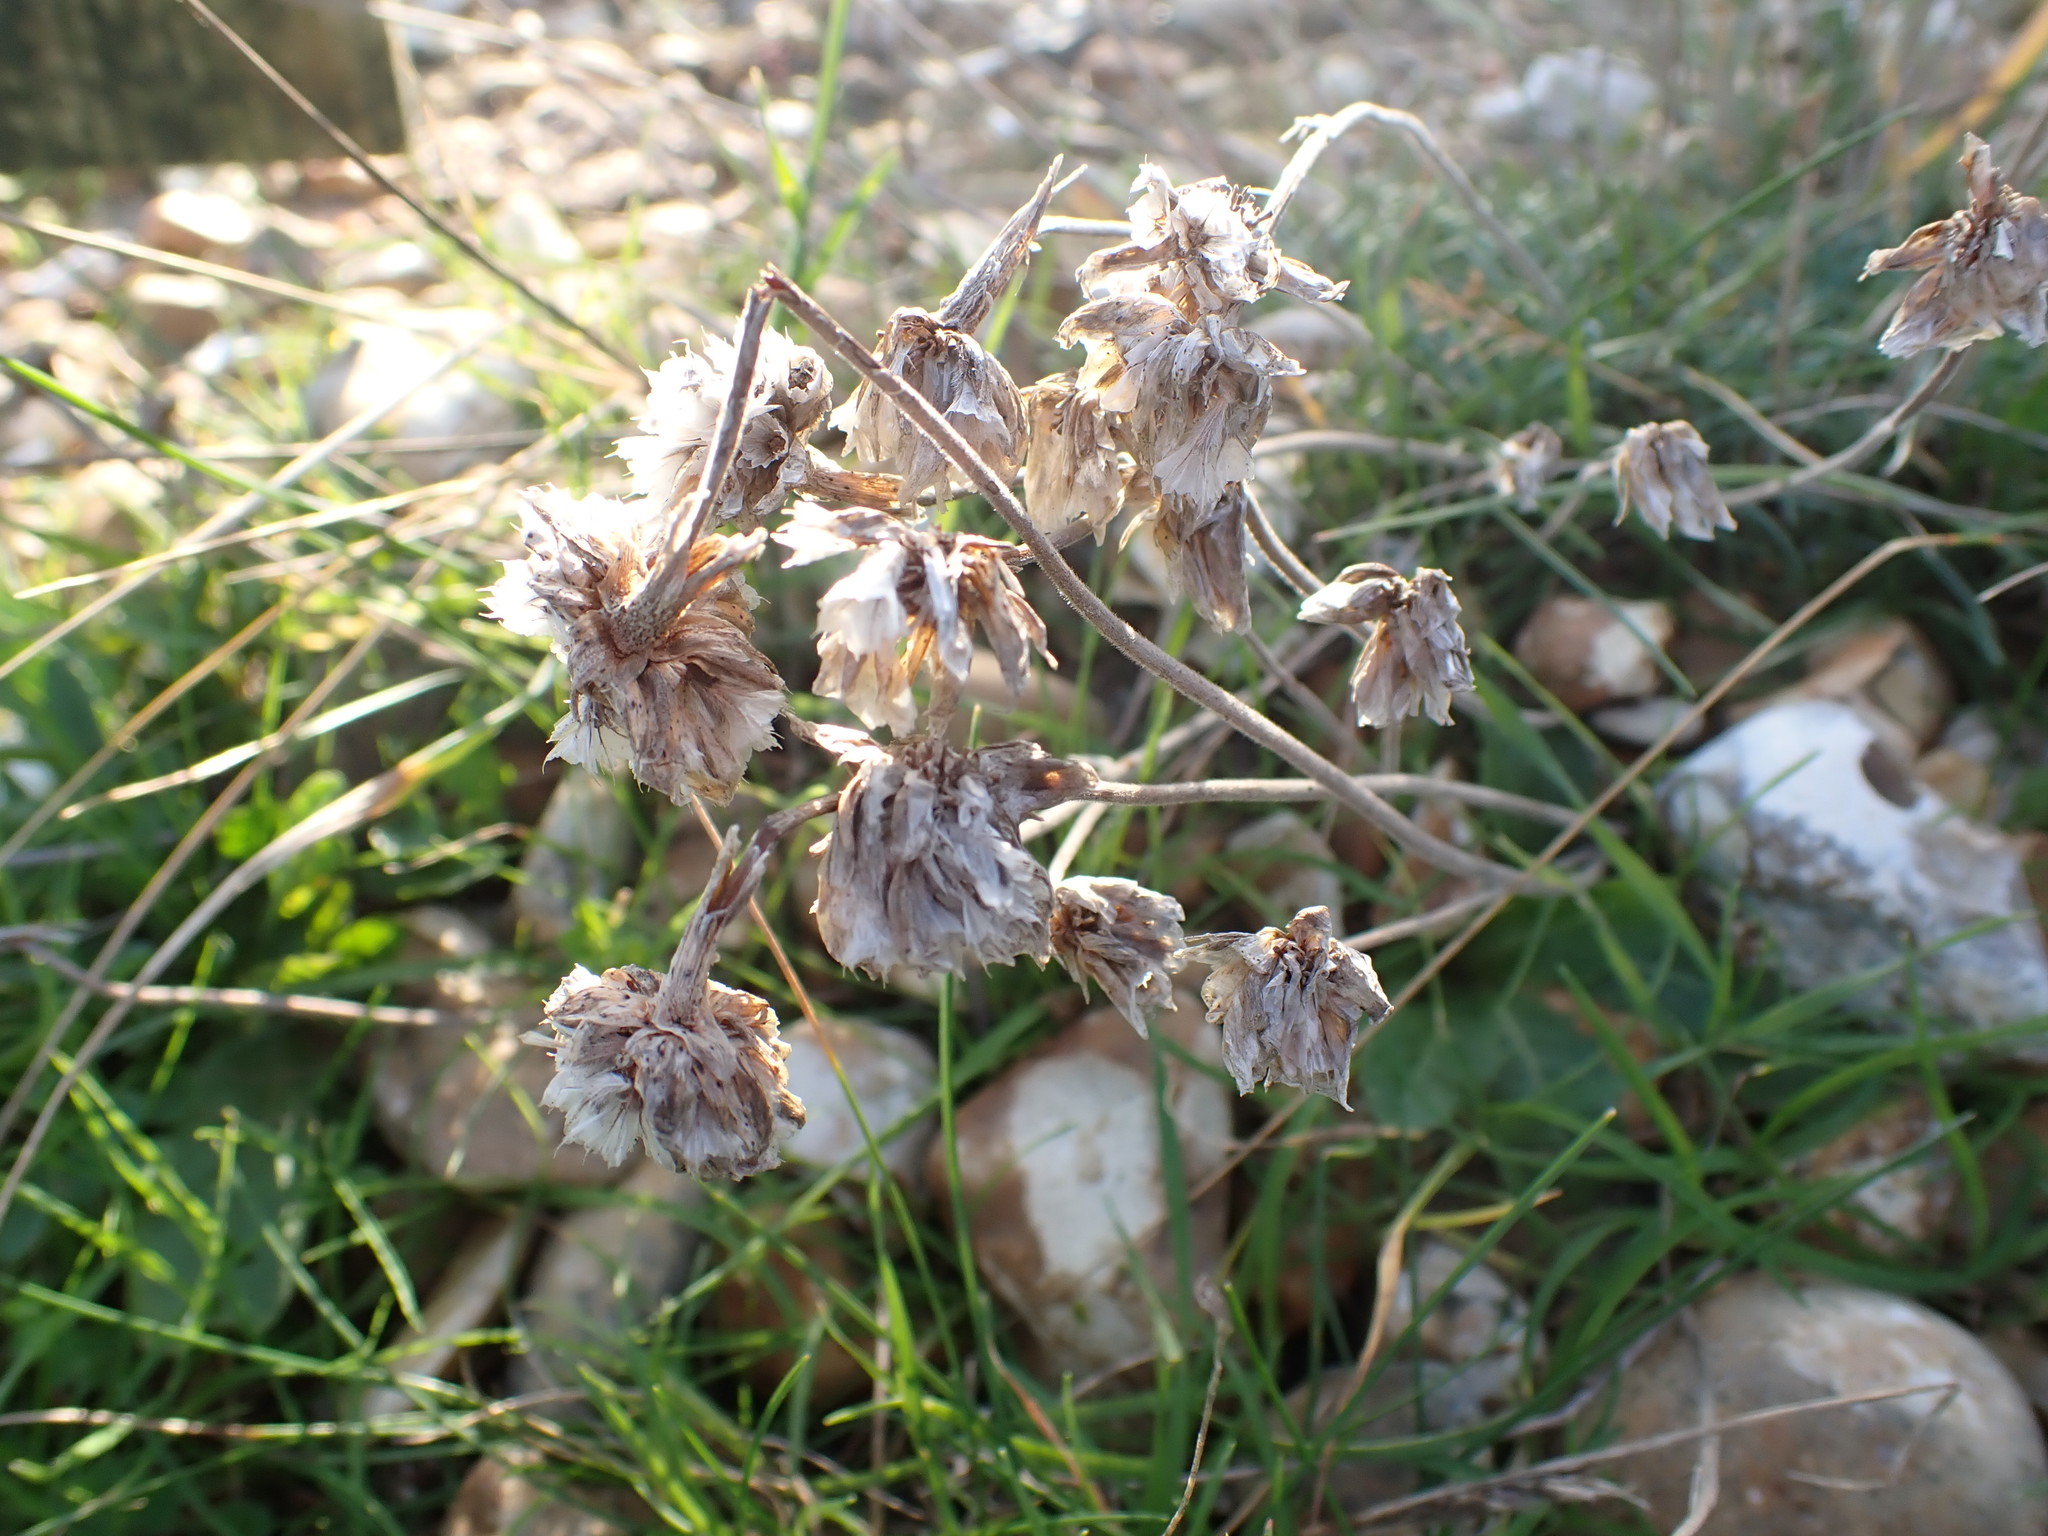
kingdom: Plantae
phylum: Tracheophyta
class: Magnoliopsida
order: Caryophyllales
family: Plumbaginaceae
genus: Armeria
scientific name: Armeria maritima
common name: Thrift
